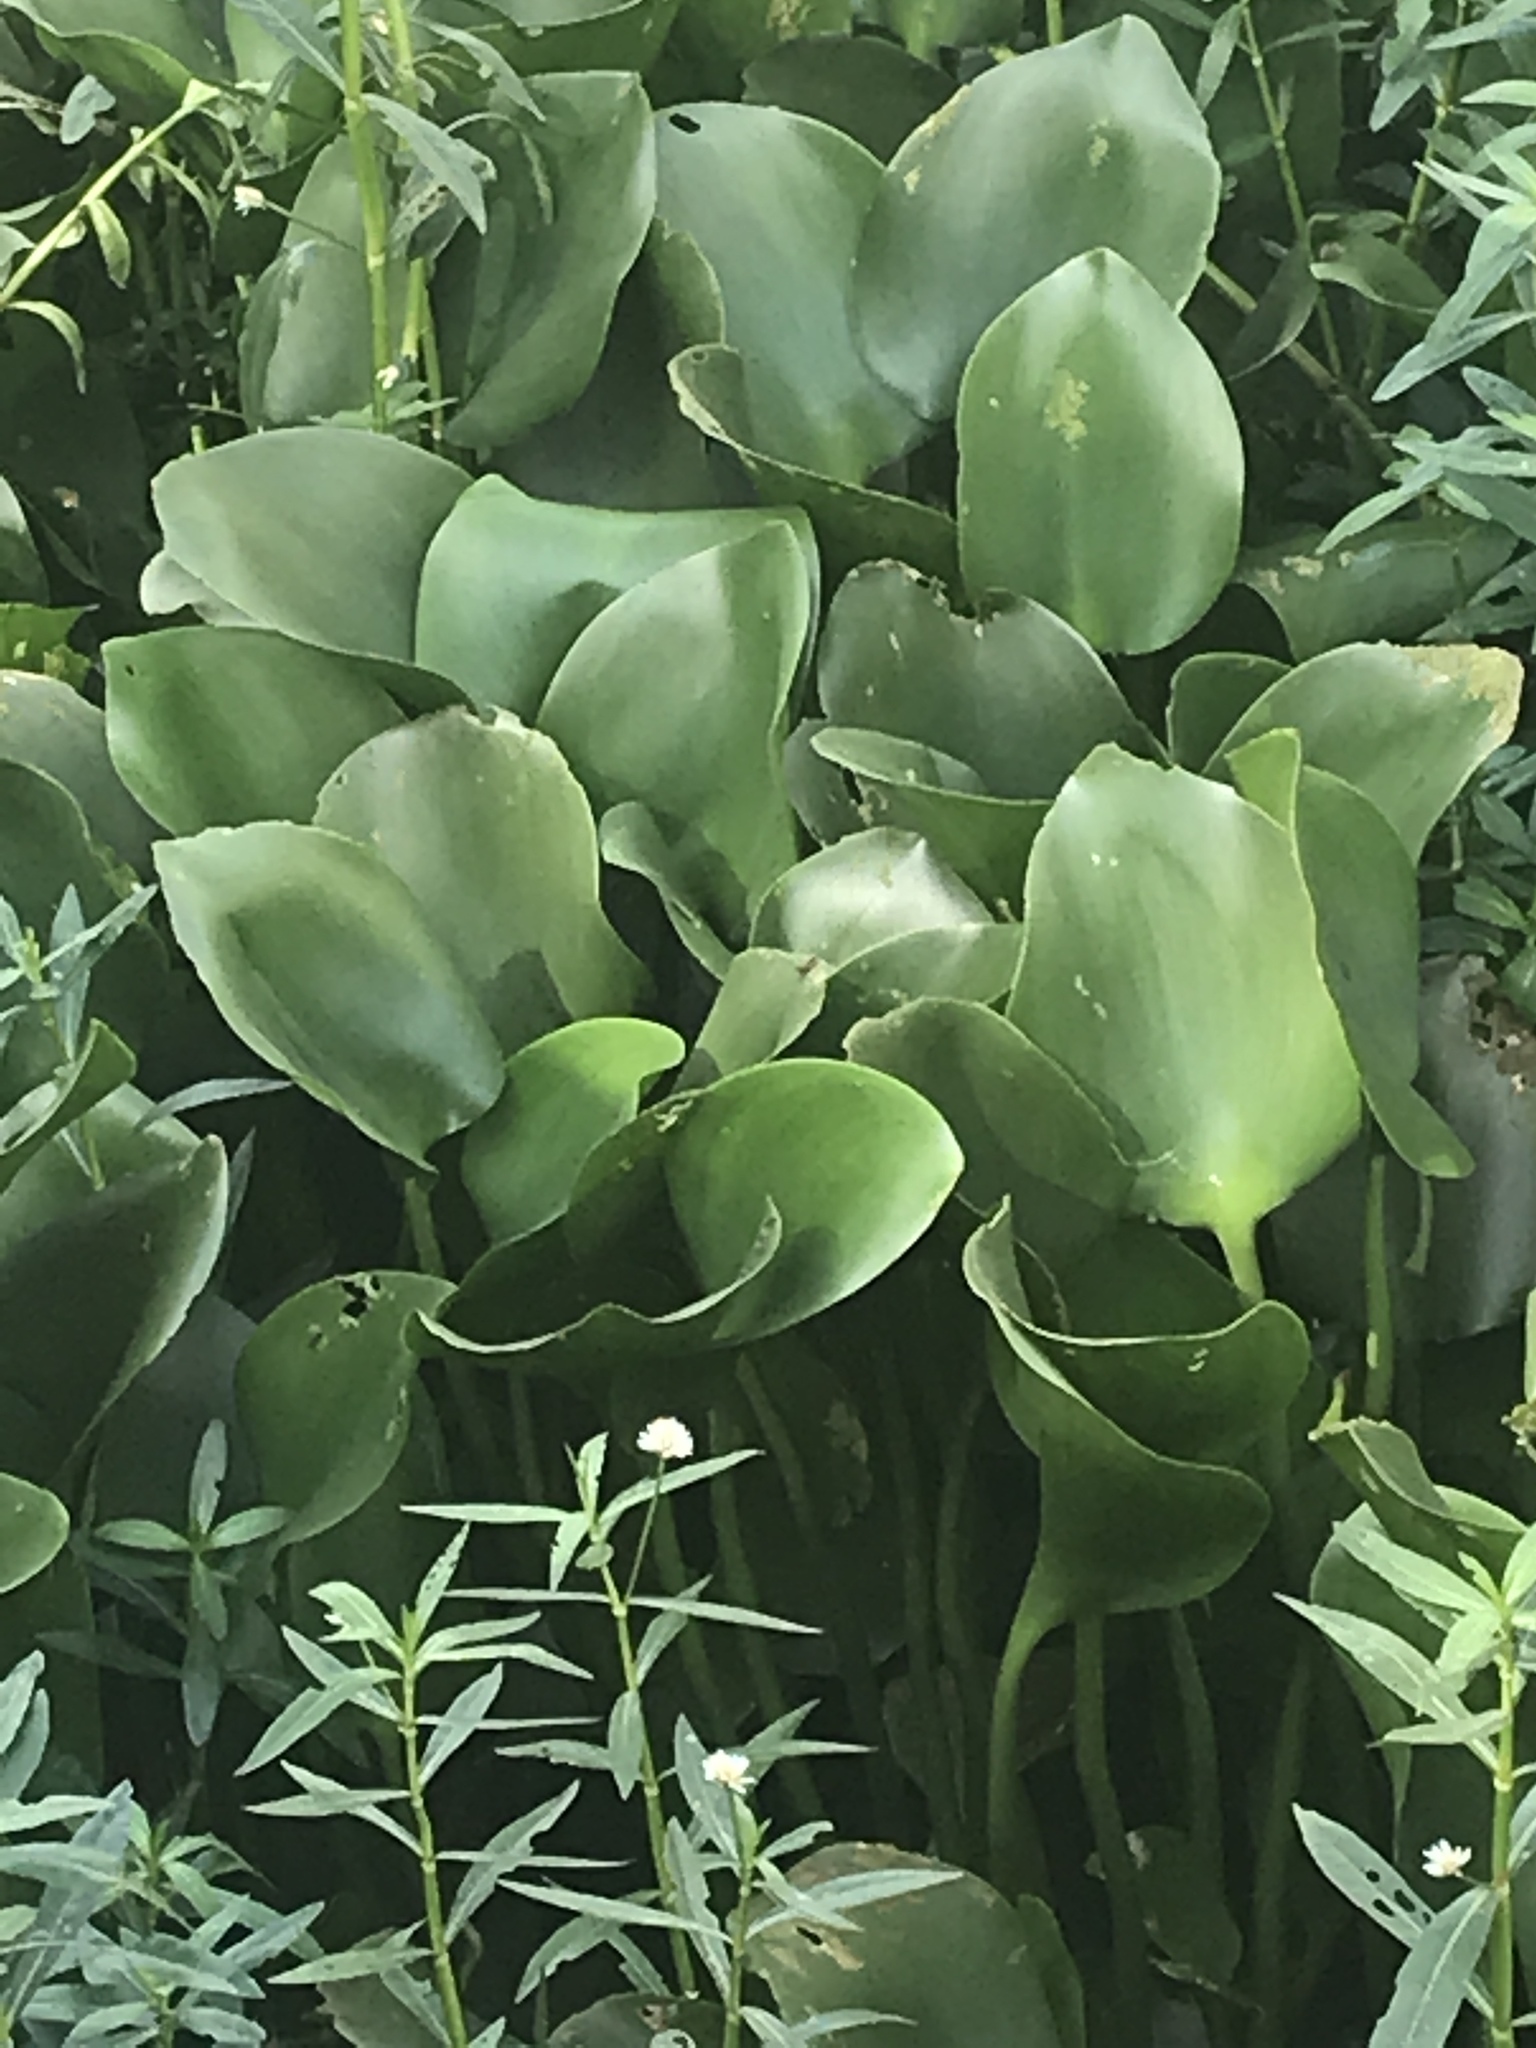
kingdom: Plantae
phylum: Tracheophyta
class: Liliopsida
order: Commelinales
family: Pontederiaceae
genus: Pontederia
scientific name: Pontederia crassipes
